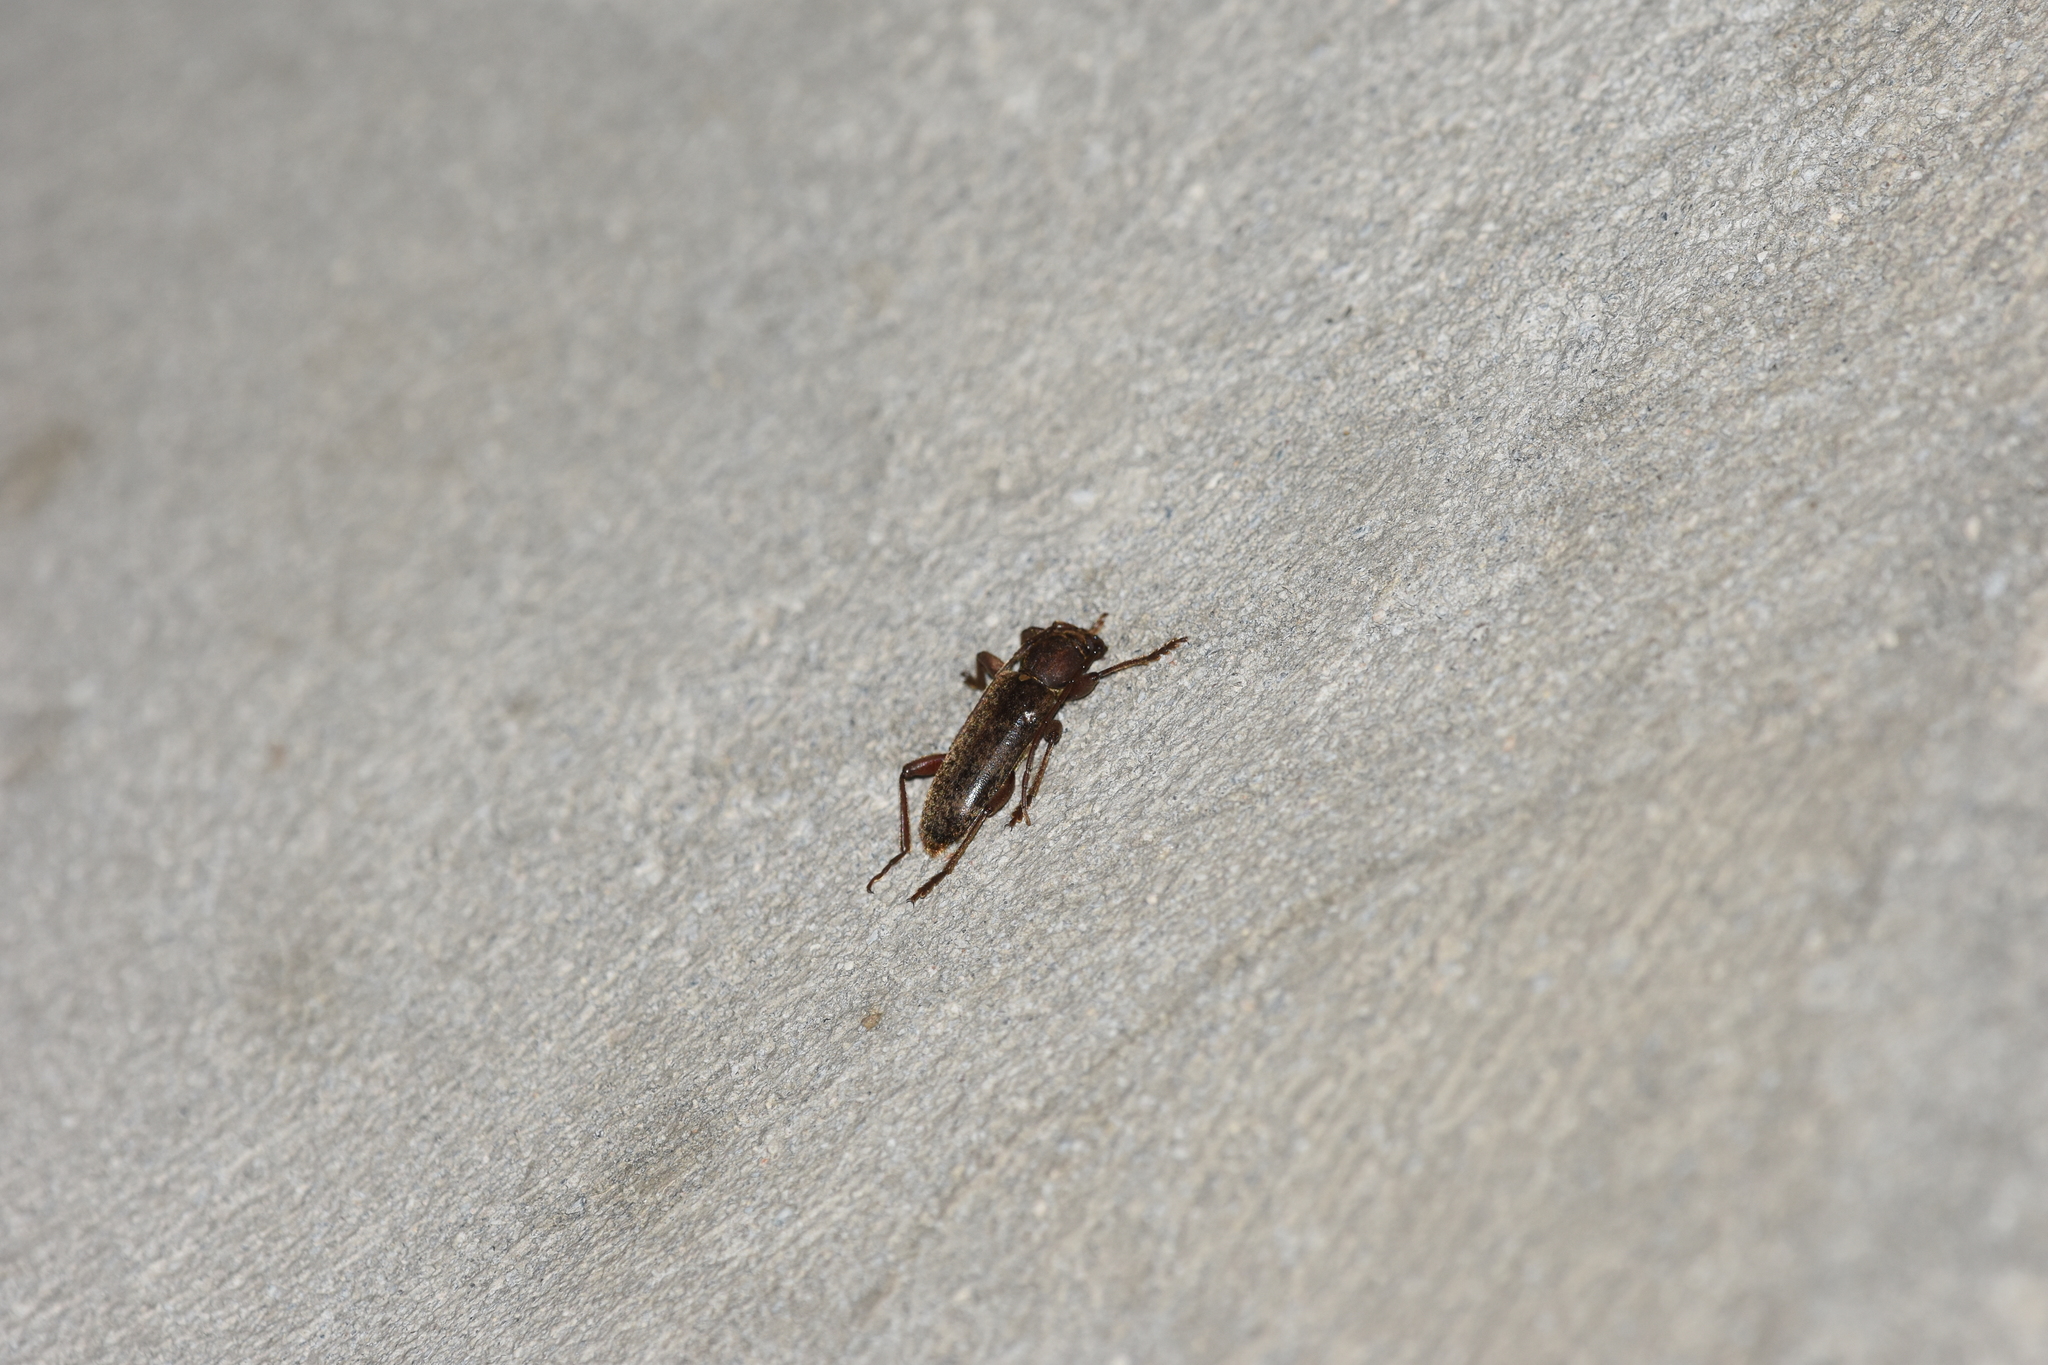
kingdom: Animalia
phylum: Arthropoda
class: Insecta
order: Coleoptera
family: Cerambycidae
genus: Trichoferus
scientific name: Trichoferus campestris
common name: Velvet long horned beetle
